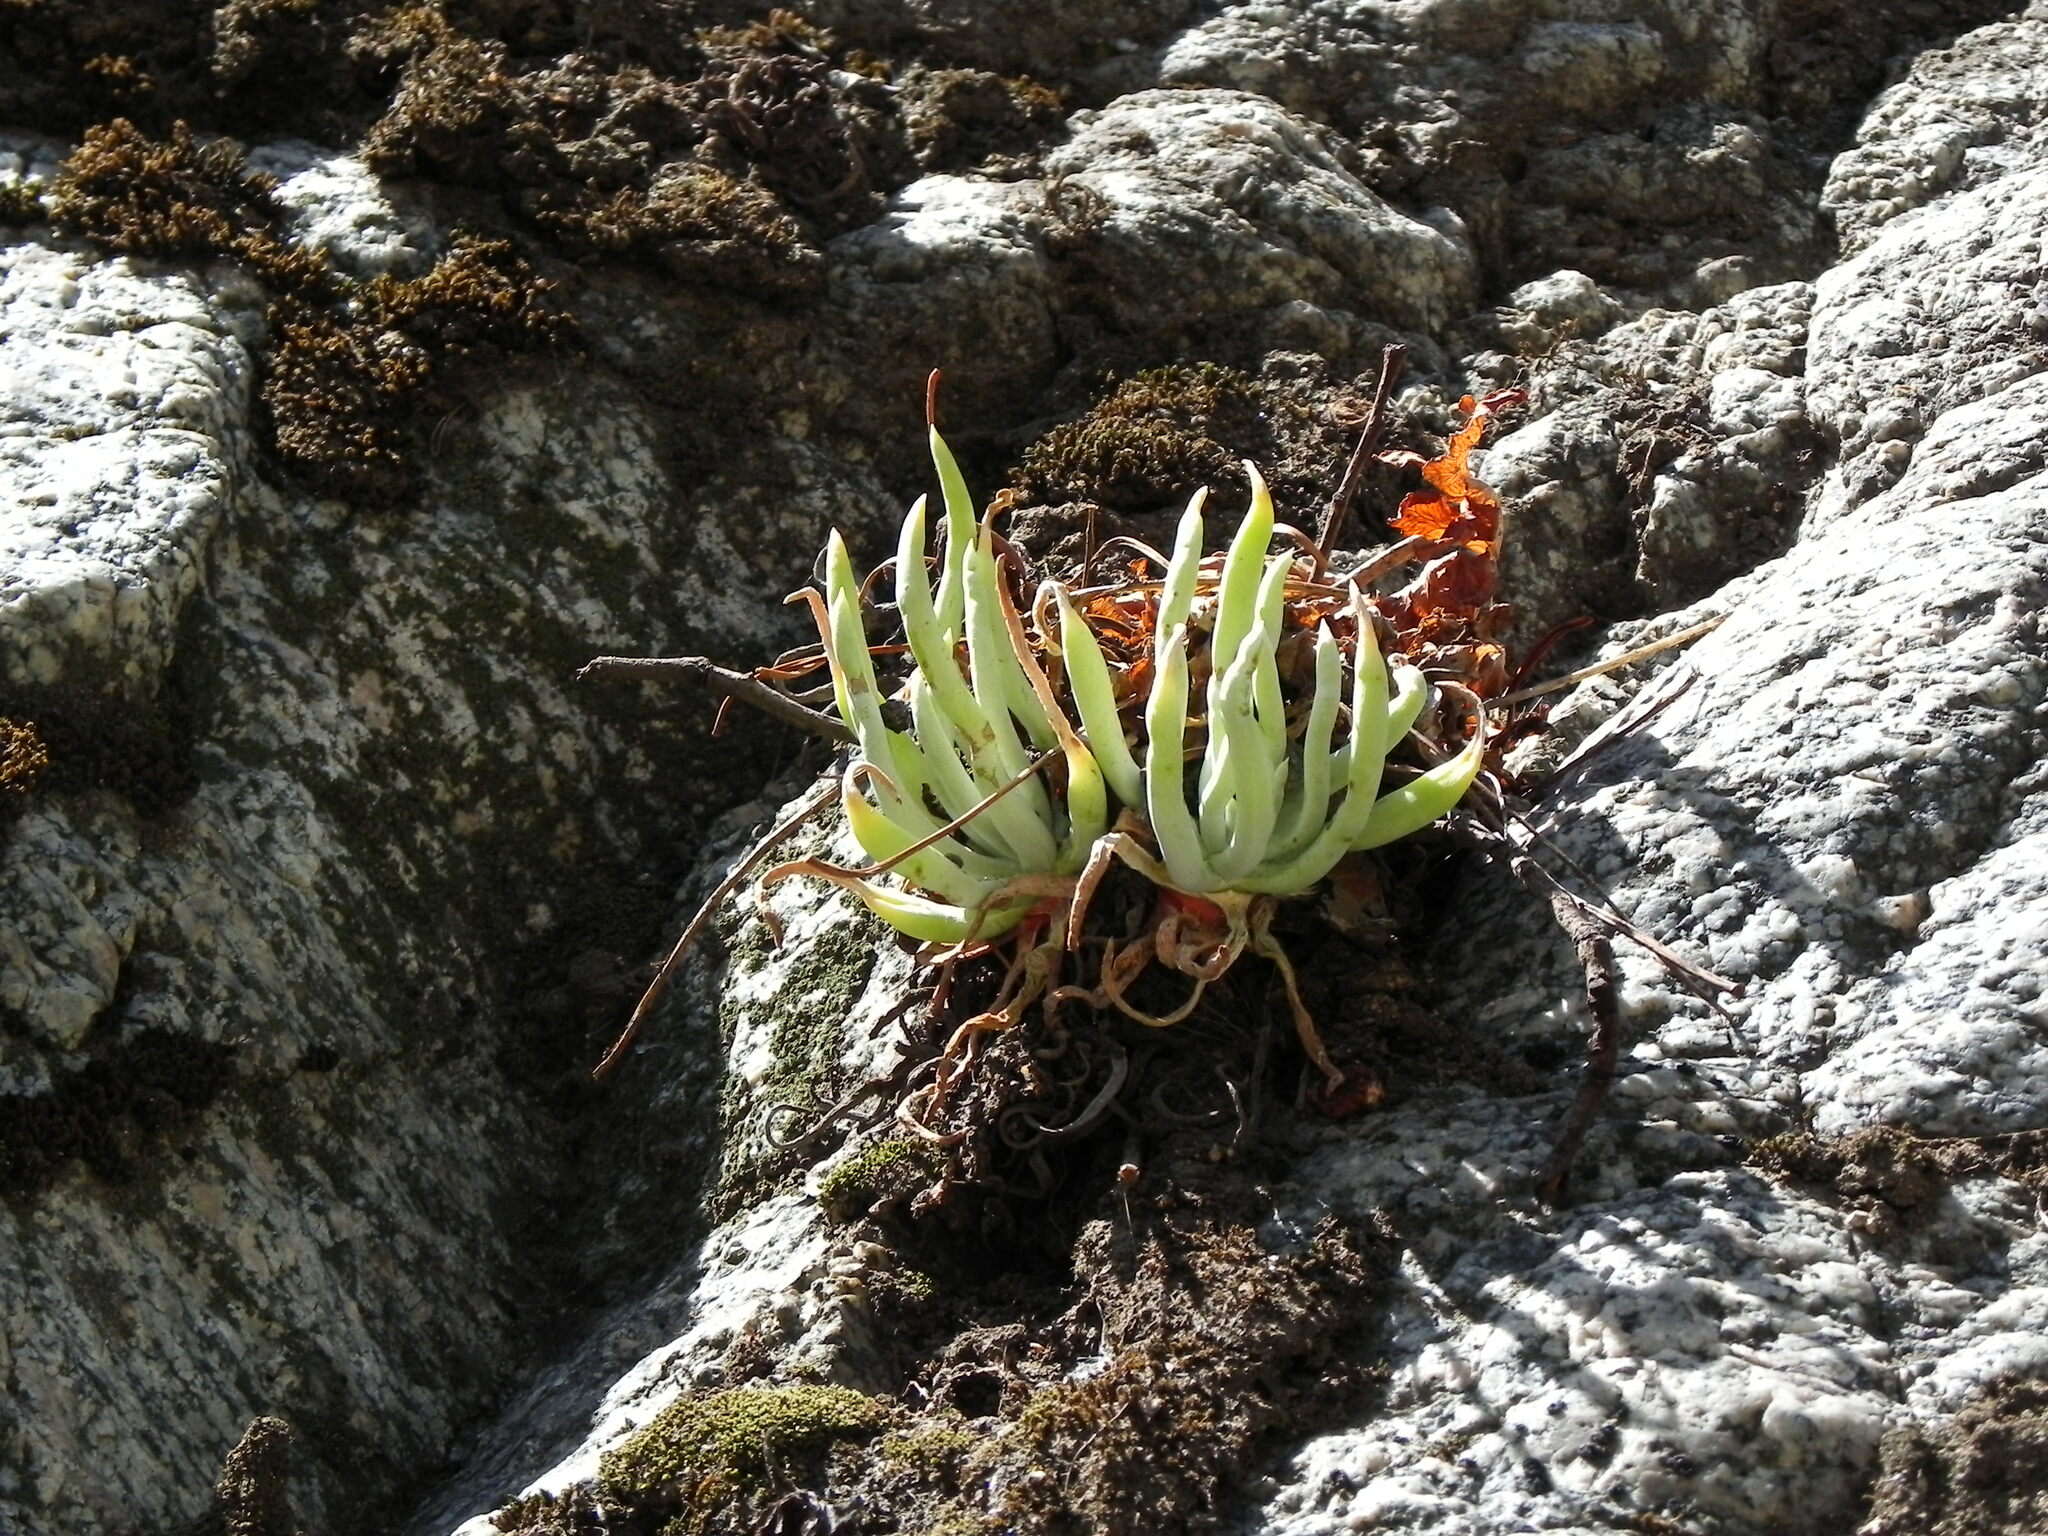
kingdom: Plantae
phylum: Tracheophyta
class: Magnoliopsida
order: Saxifragales
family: Crassulaceae
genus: Dudleya
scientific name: Dudleya densiflora
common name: San gabriel mountains dudleya
